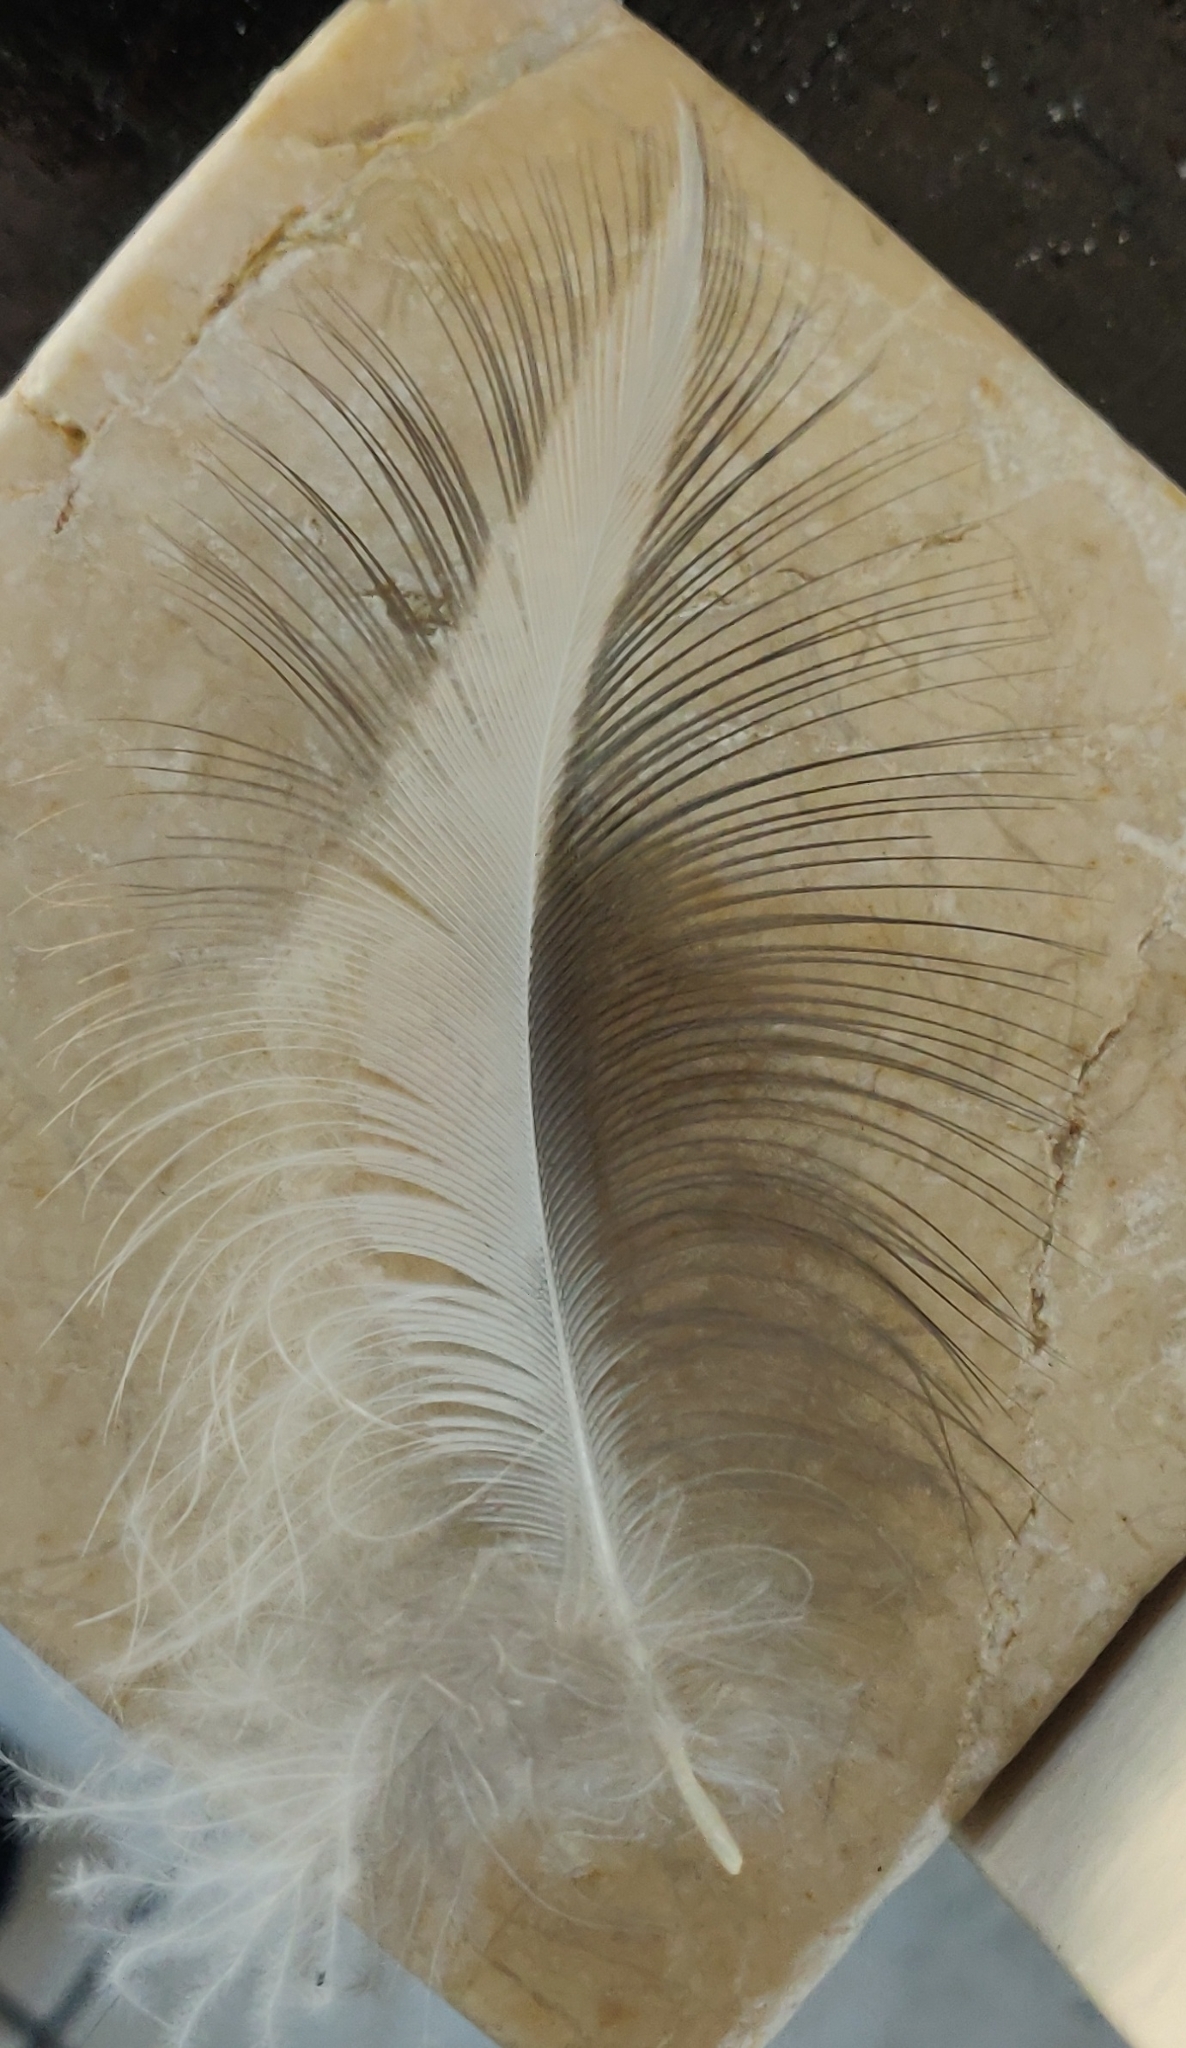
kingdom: Animalia
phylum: Chordata
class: Aves
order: Pelecaniformes
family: Ardeidae
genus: Ardea
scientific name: Ardea herodias
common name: Great blue heron
